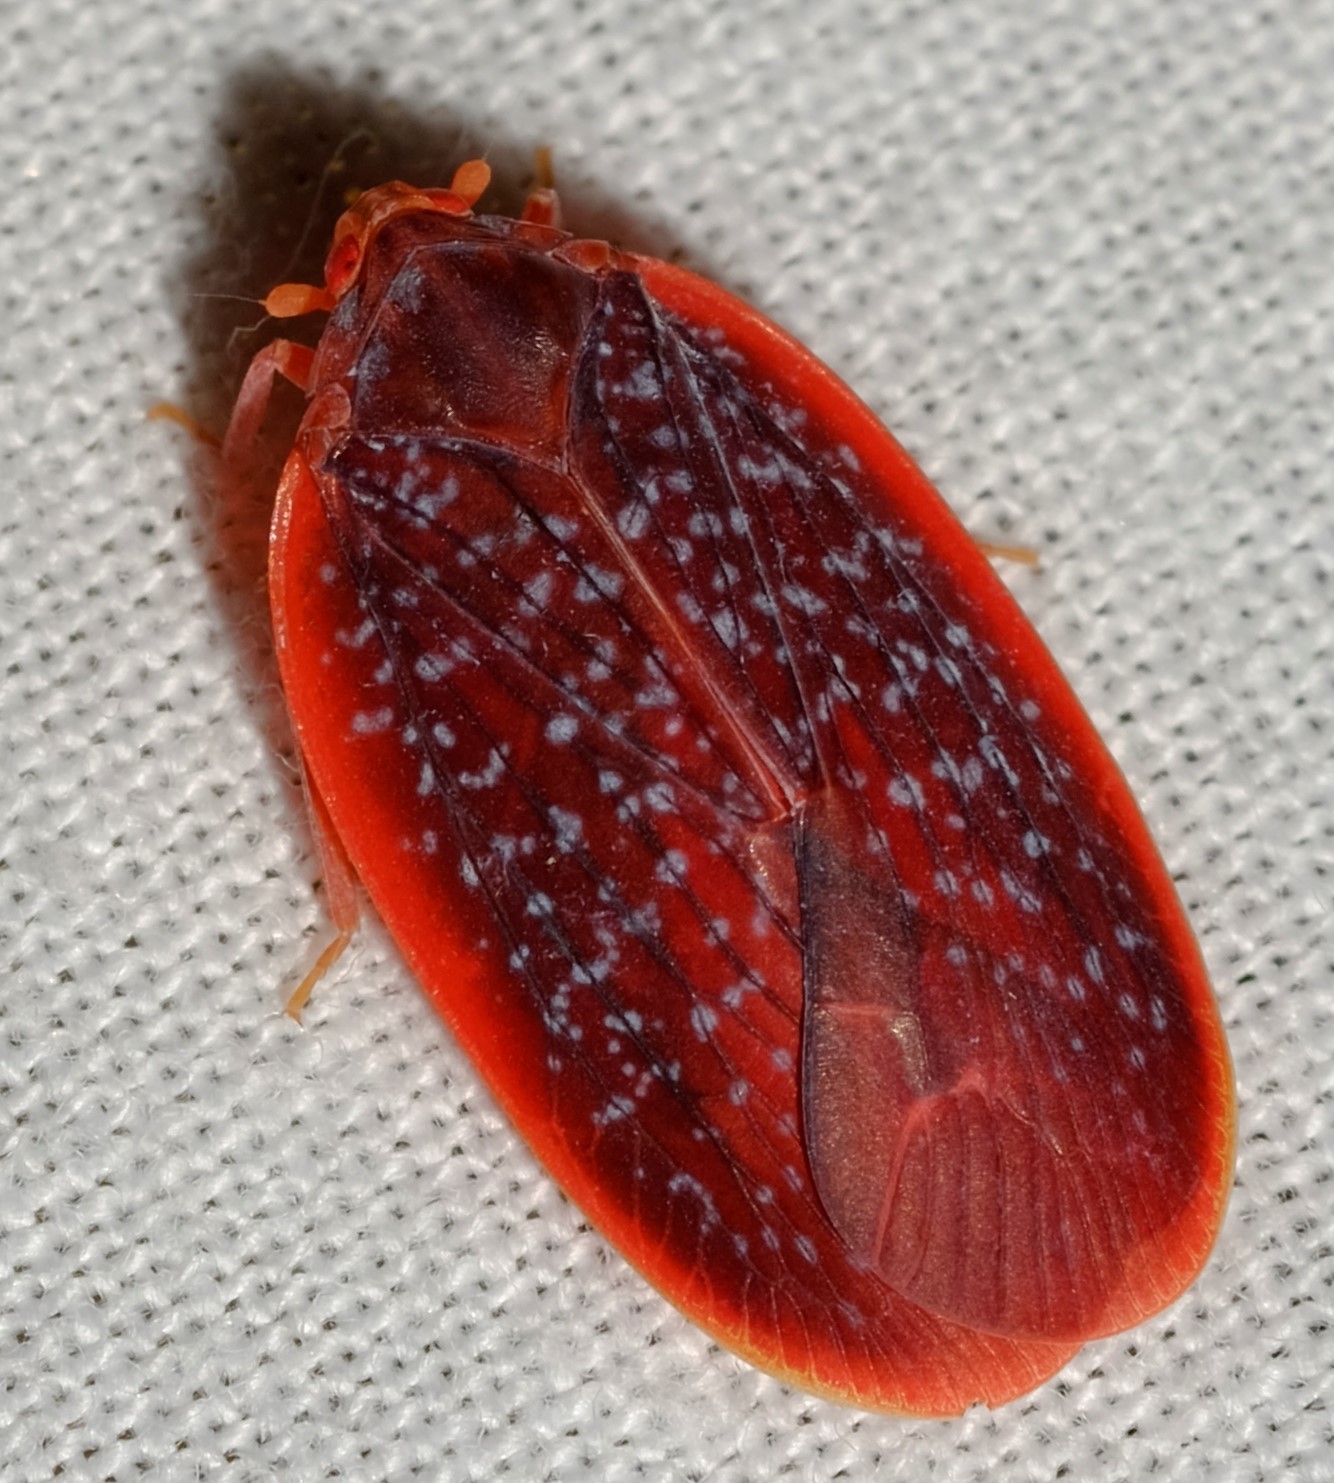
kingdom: Animalia
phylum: Arthropoda
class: Insecta
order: Hemiptera
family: Achilidae
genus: Achilus
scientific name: Achilus flammeus
